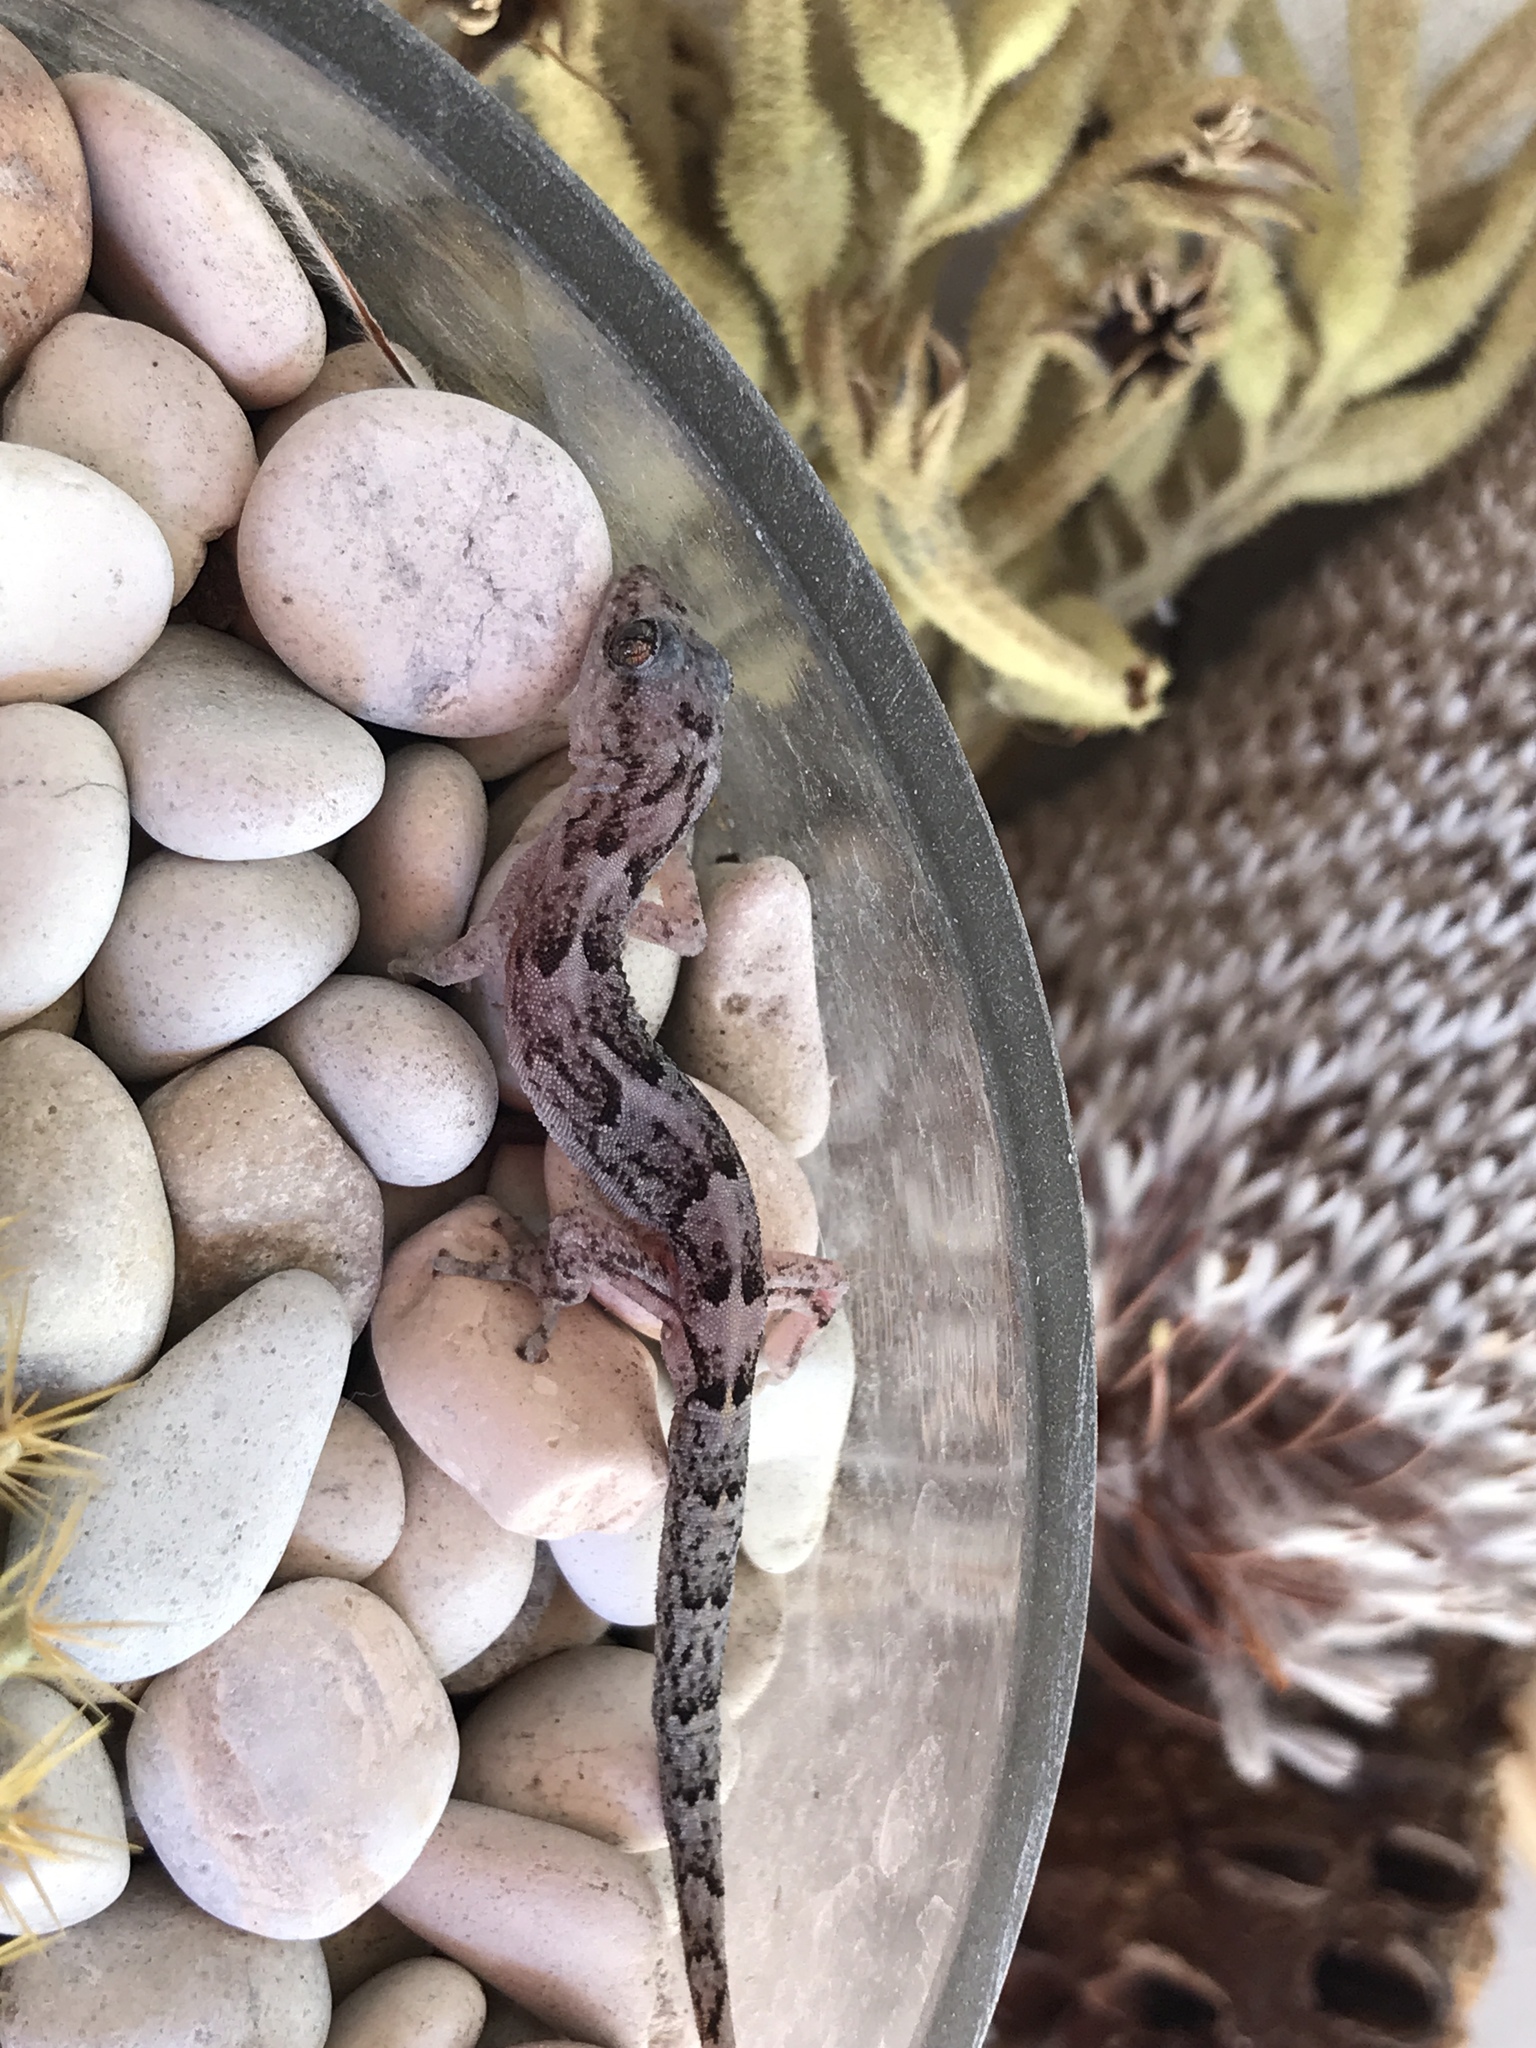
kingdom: Animalia
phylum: Chordata
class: Squamata
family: Gekkonidae
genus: Christinus
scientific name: Christinus marmoratus
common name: Marbled gecko
